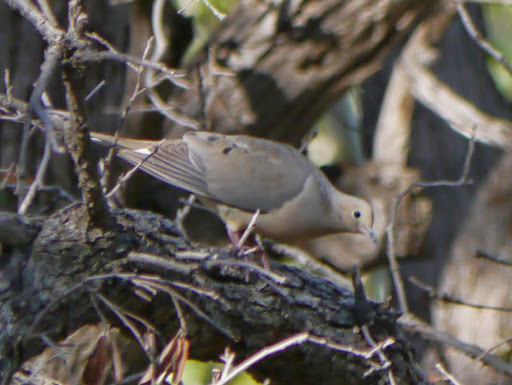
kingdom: Animalia
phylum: Chordata
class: Aves
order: Columbiformes
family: Columbidae
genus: Zenaida
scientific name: Zenaida macroura
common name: Mourning dove
